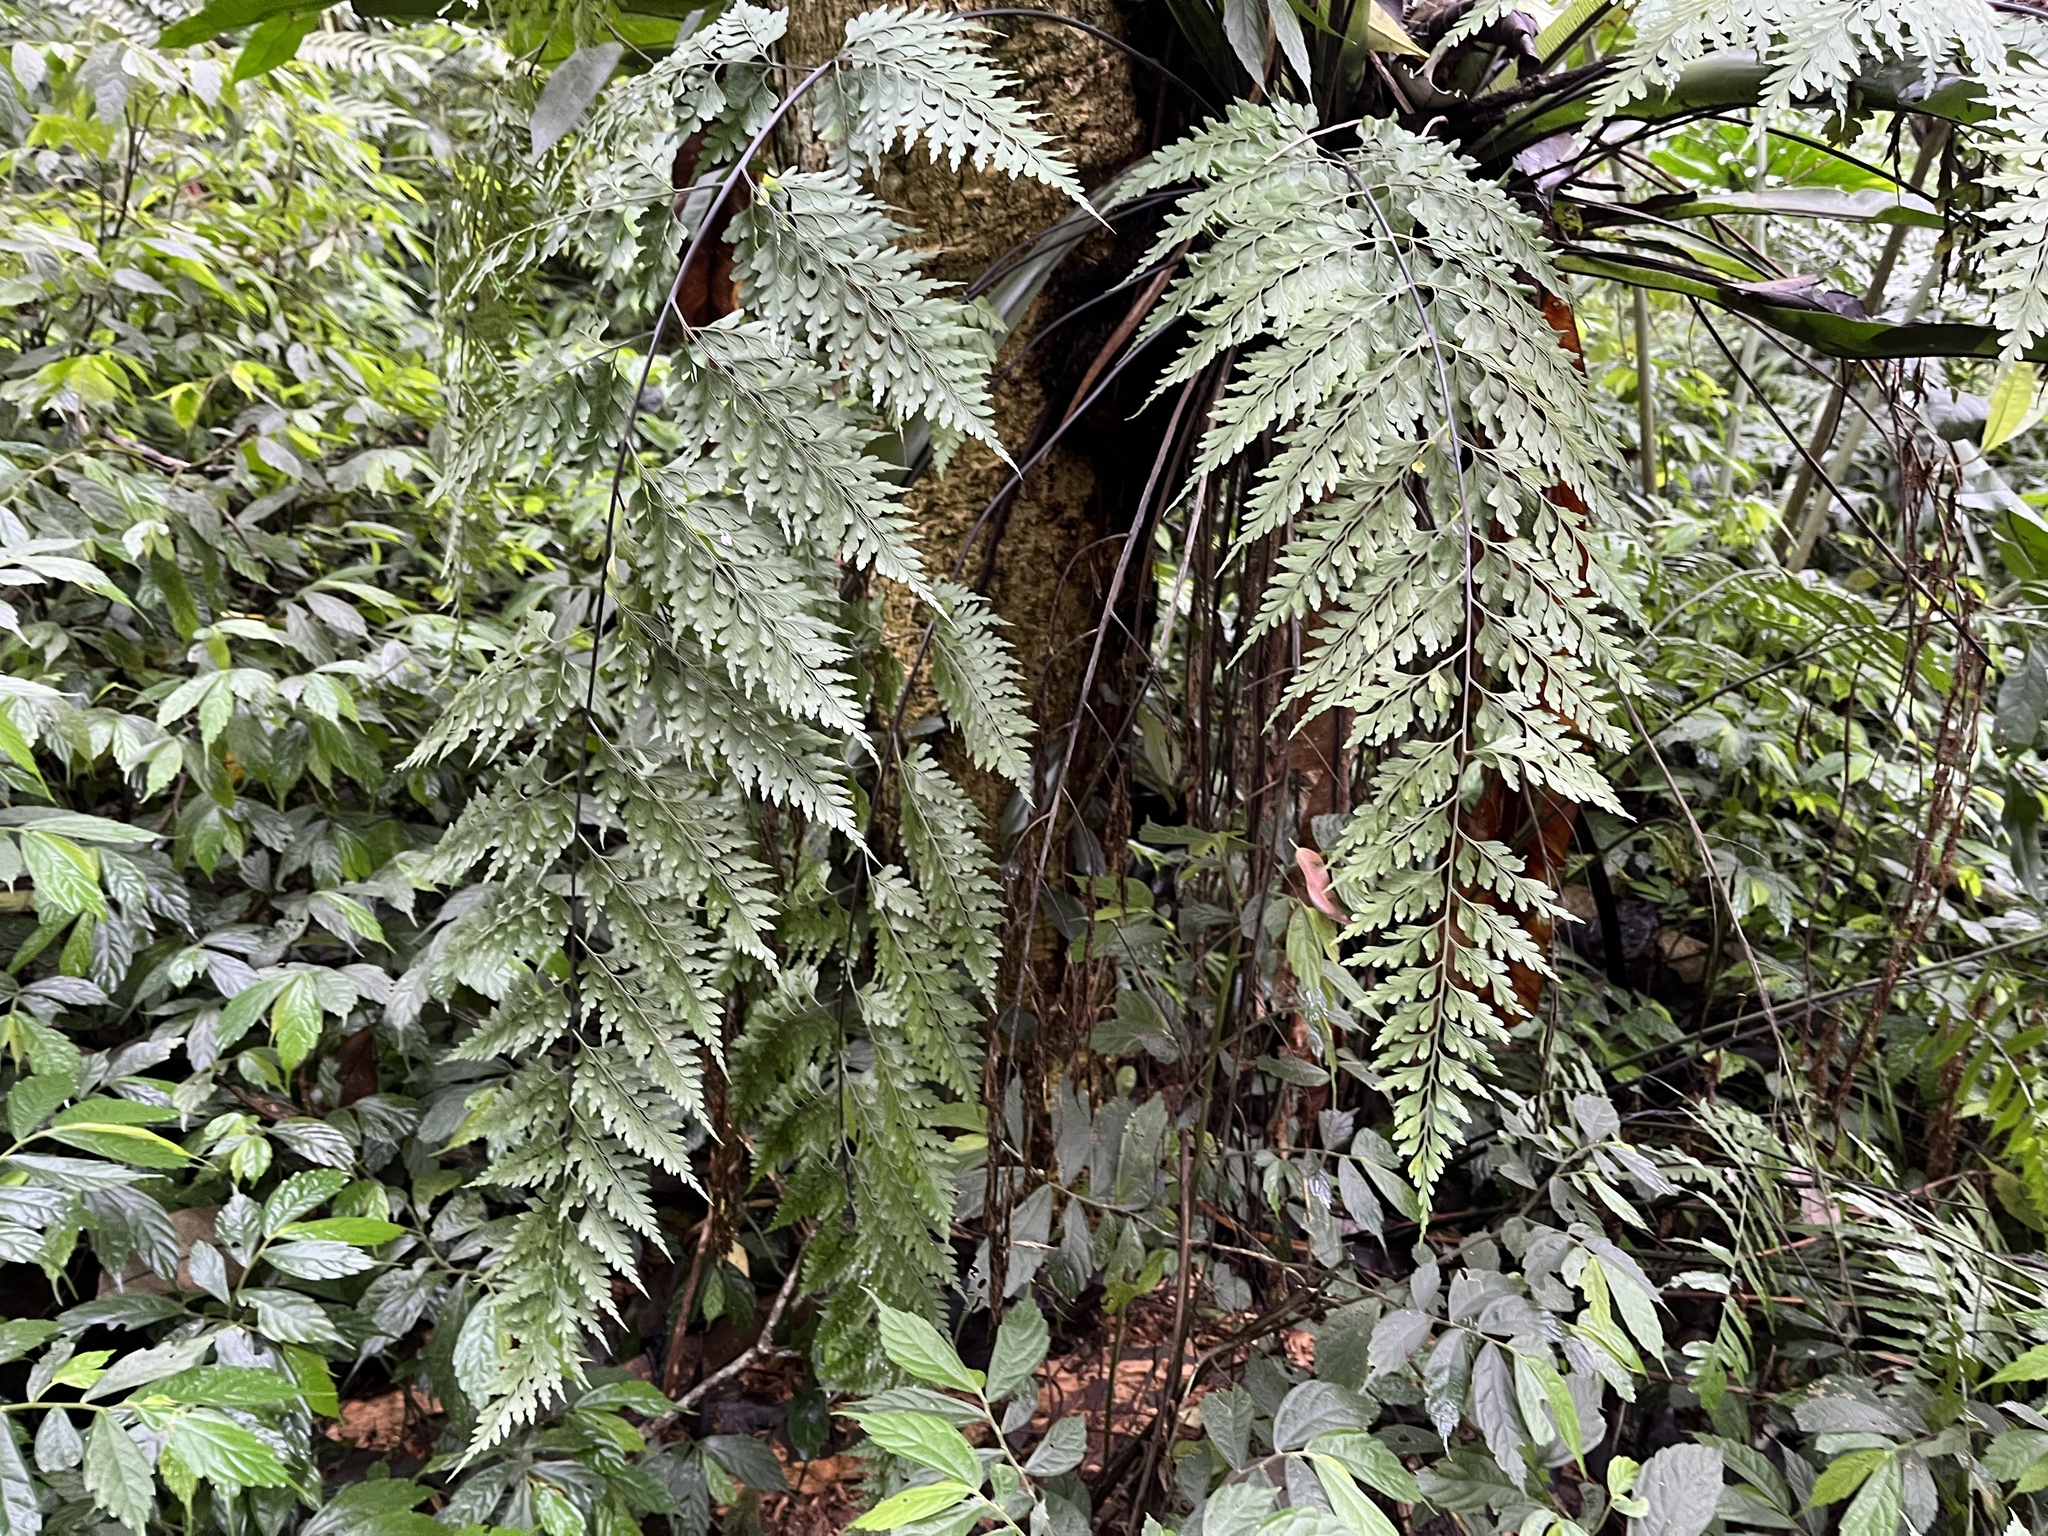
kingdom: Plantae
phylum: Tracheophyta
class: Polypodiopsida
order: Polypodiales
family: Aspleniaceae
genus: Asplenium
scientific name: Asplenium pseudolaserpitiifolium
